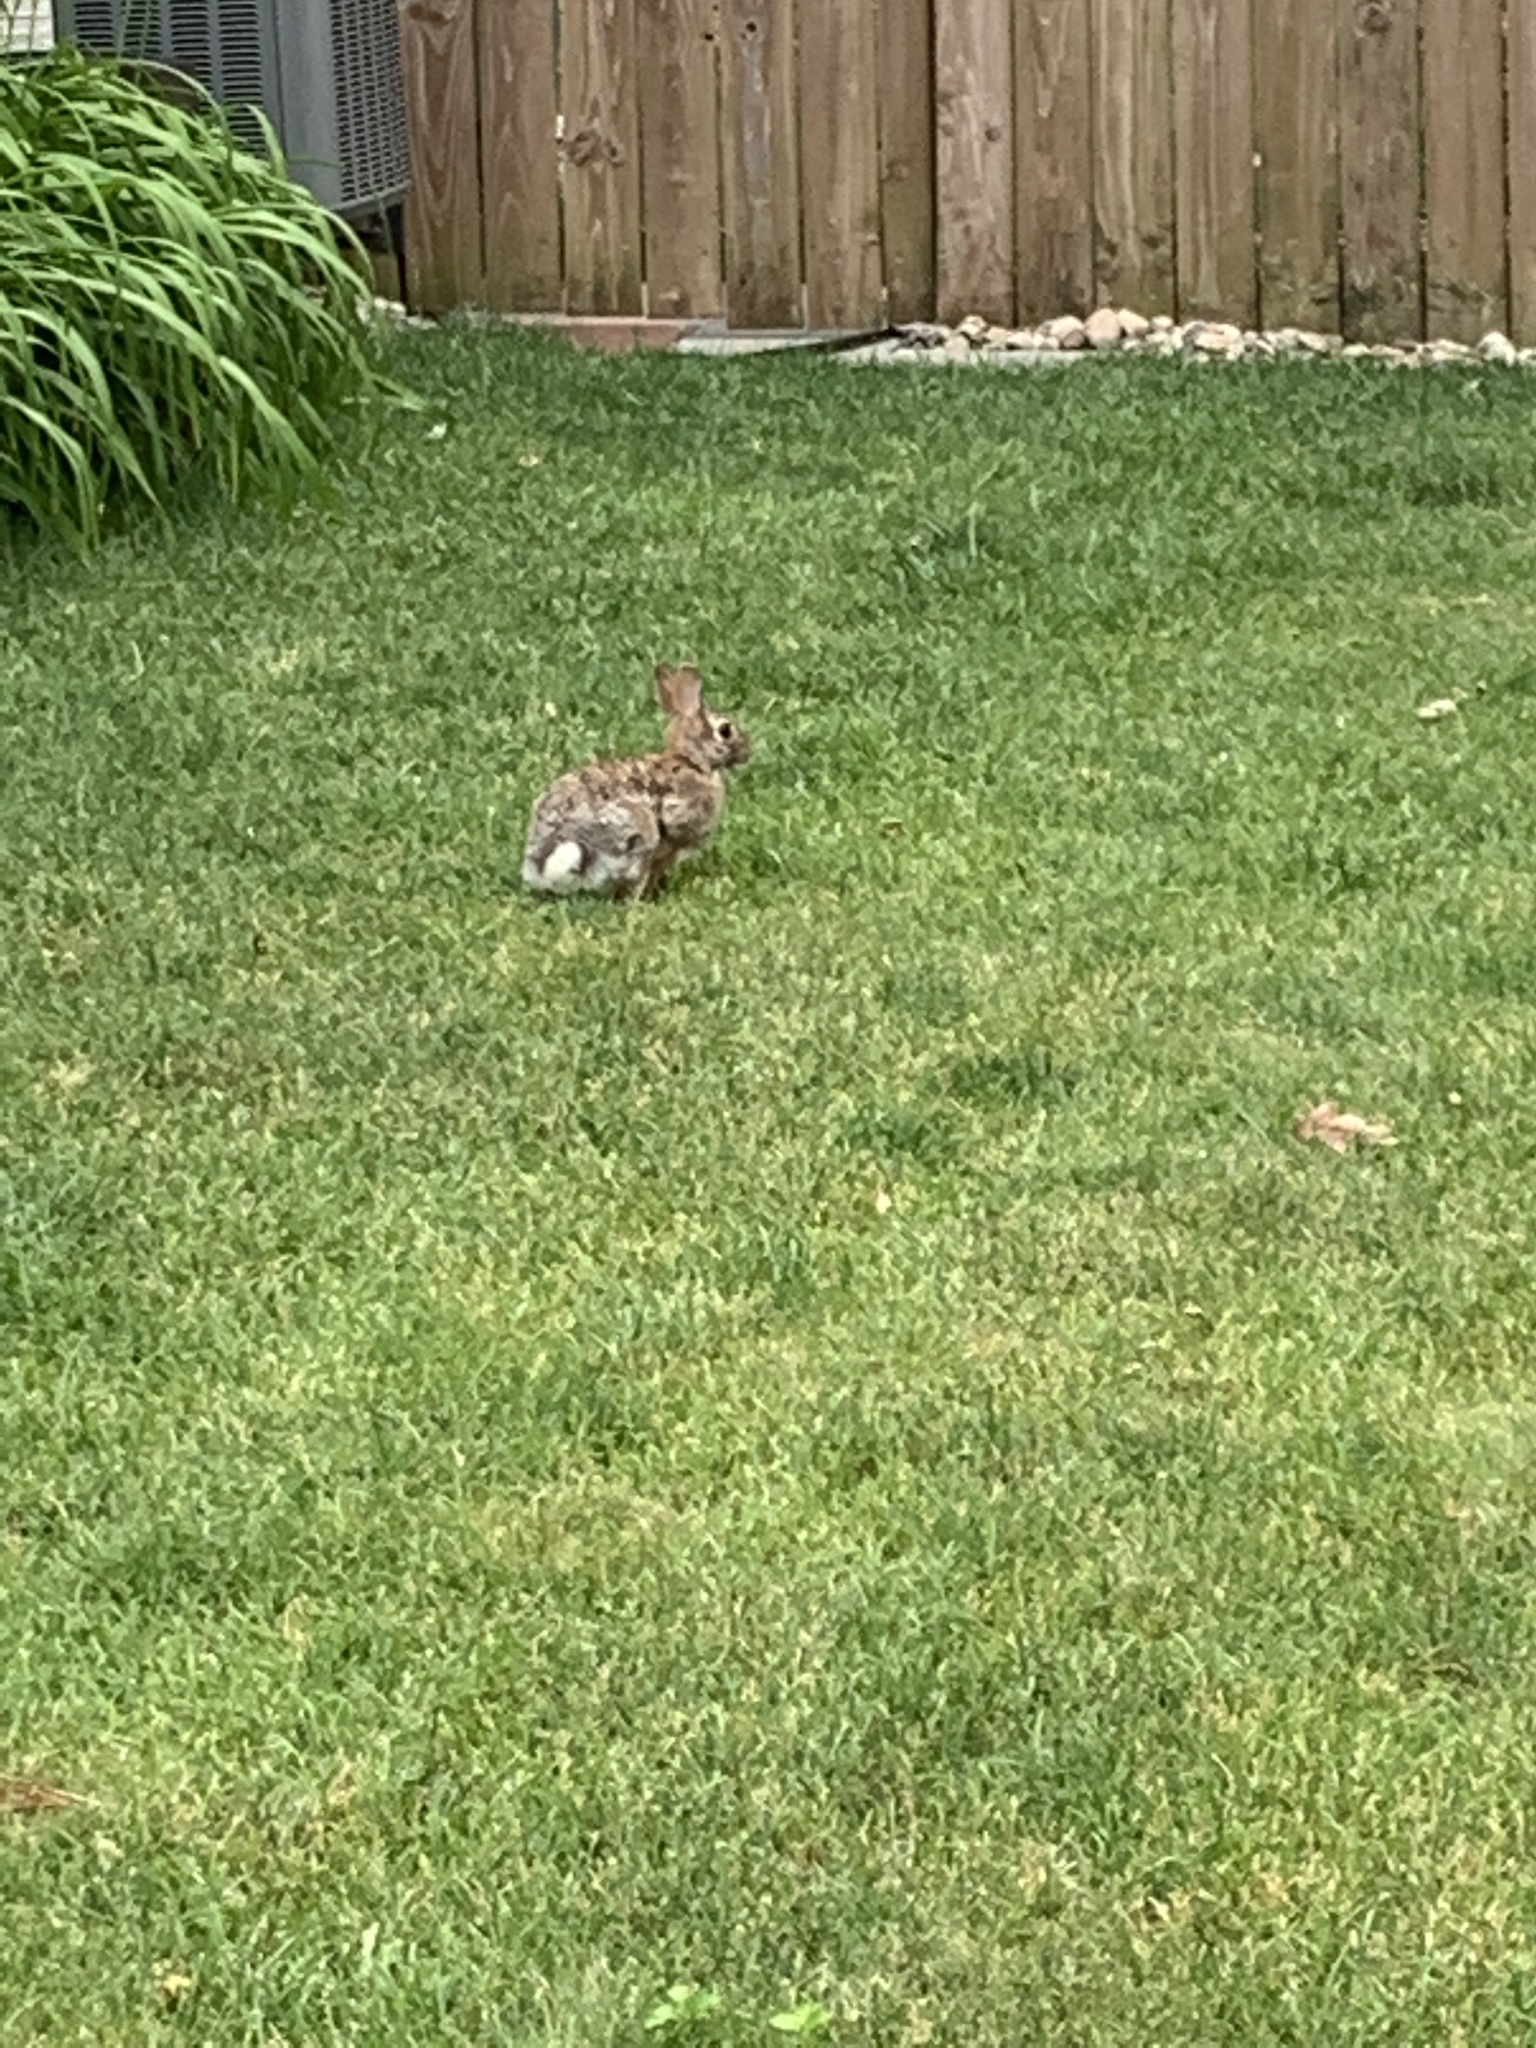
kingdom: Animalia
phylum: Chordata
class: Mammalia
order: Lagomorpha
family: Leporidae
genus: Sylvilagus
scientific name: Sylvilagus floridanus
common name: Eastern cottontail
